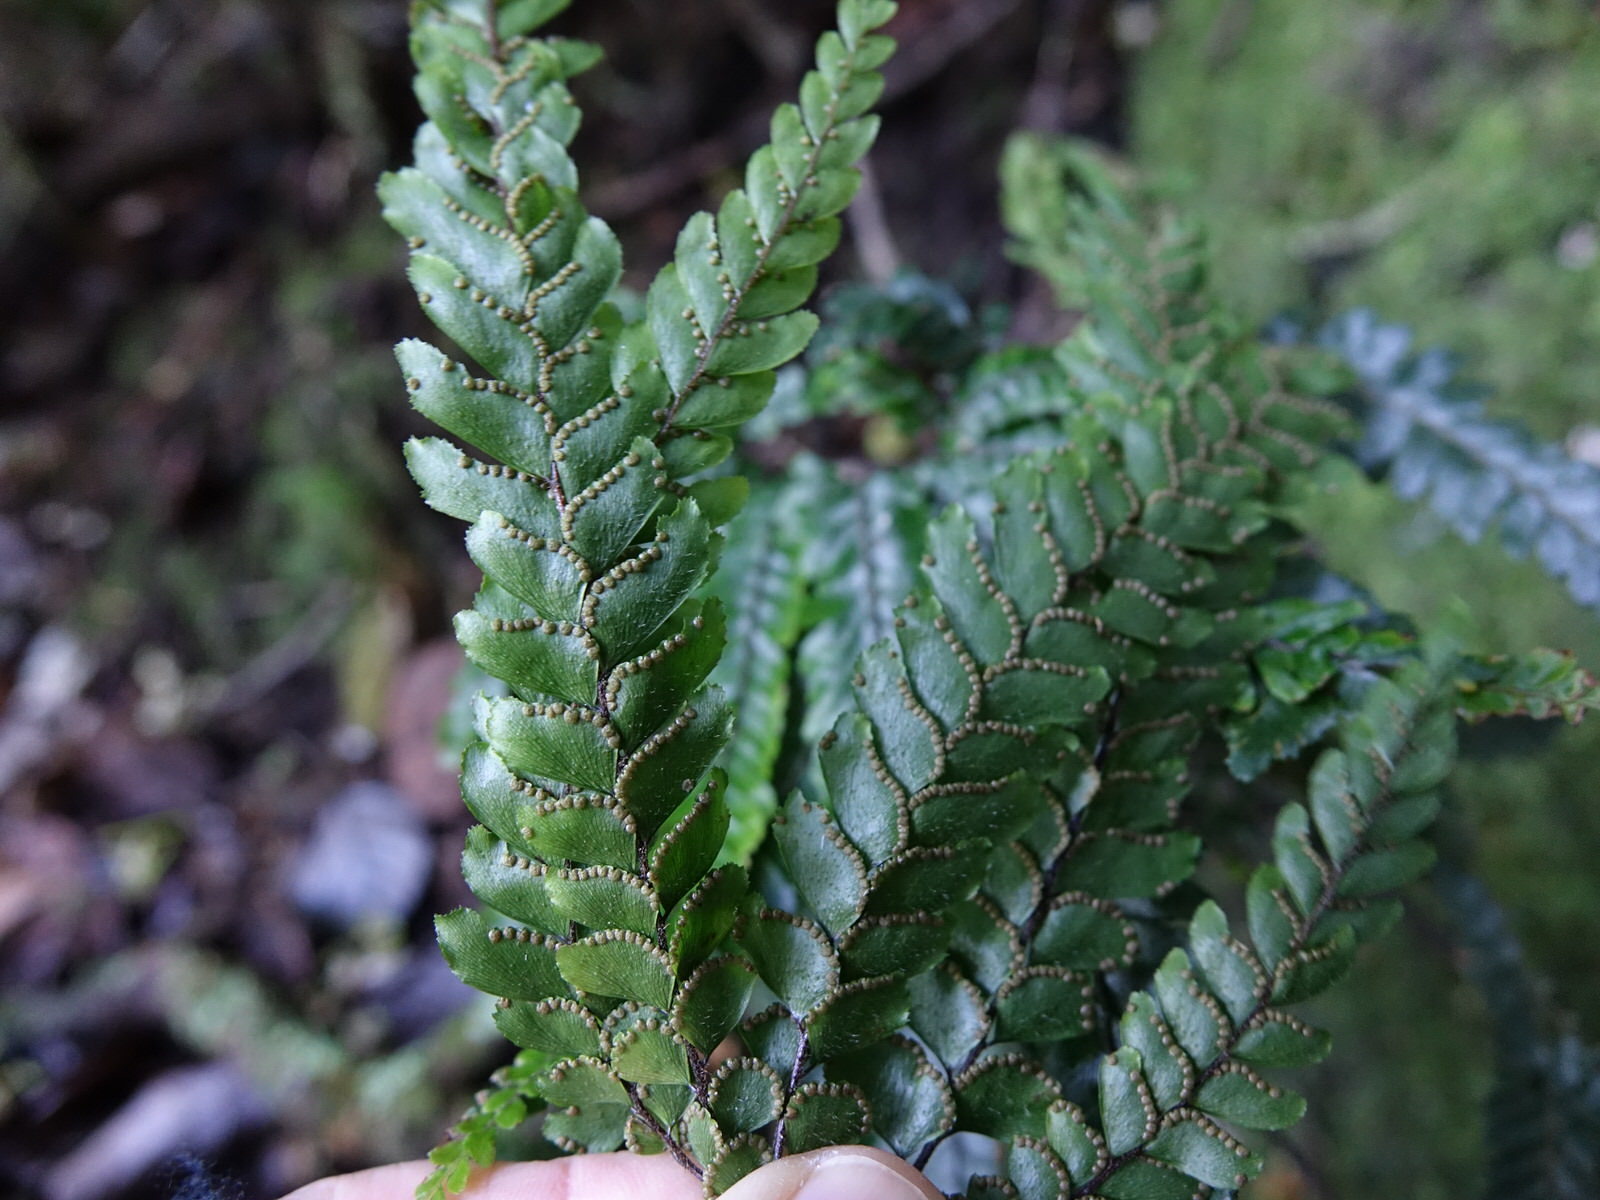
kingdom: Plantae
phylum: Tracheophyta
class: Polypodiopsida
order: Polypodiales
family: Pteridaceae
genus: Adiantum
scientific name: Adiantum hispidulum
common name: Rough maidenhair
